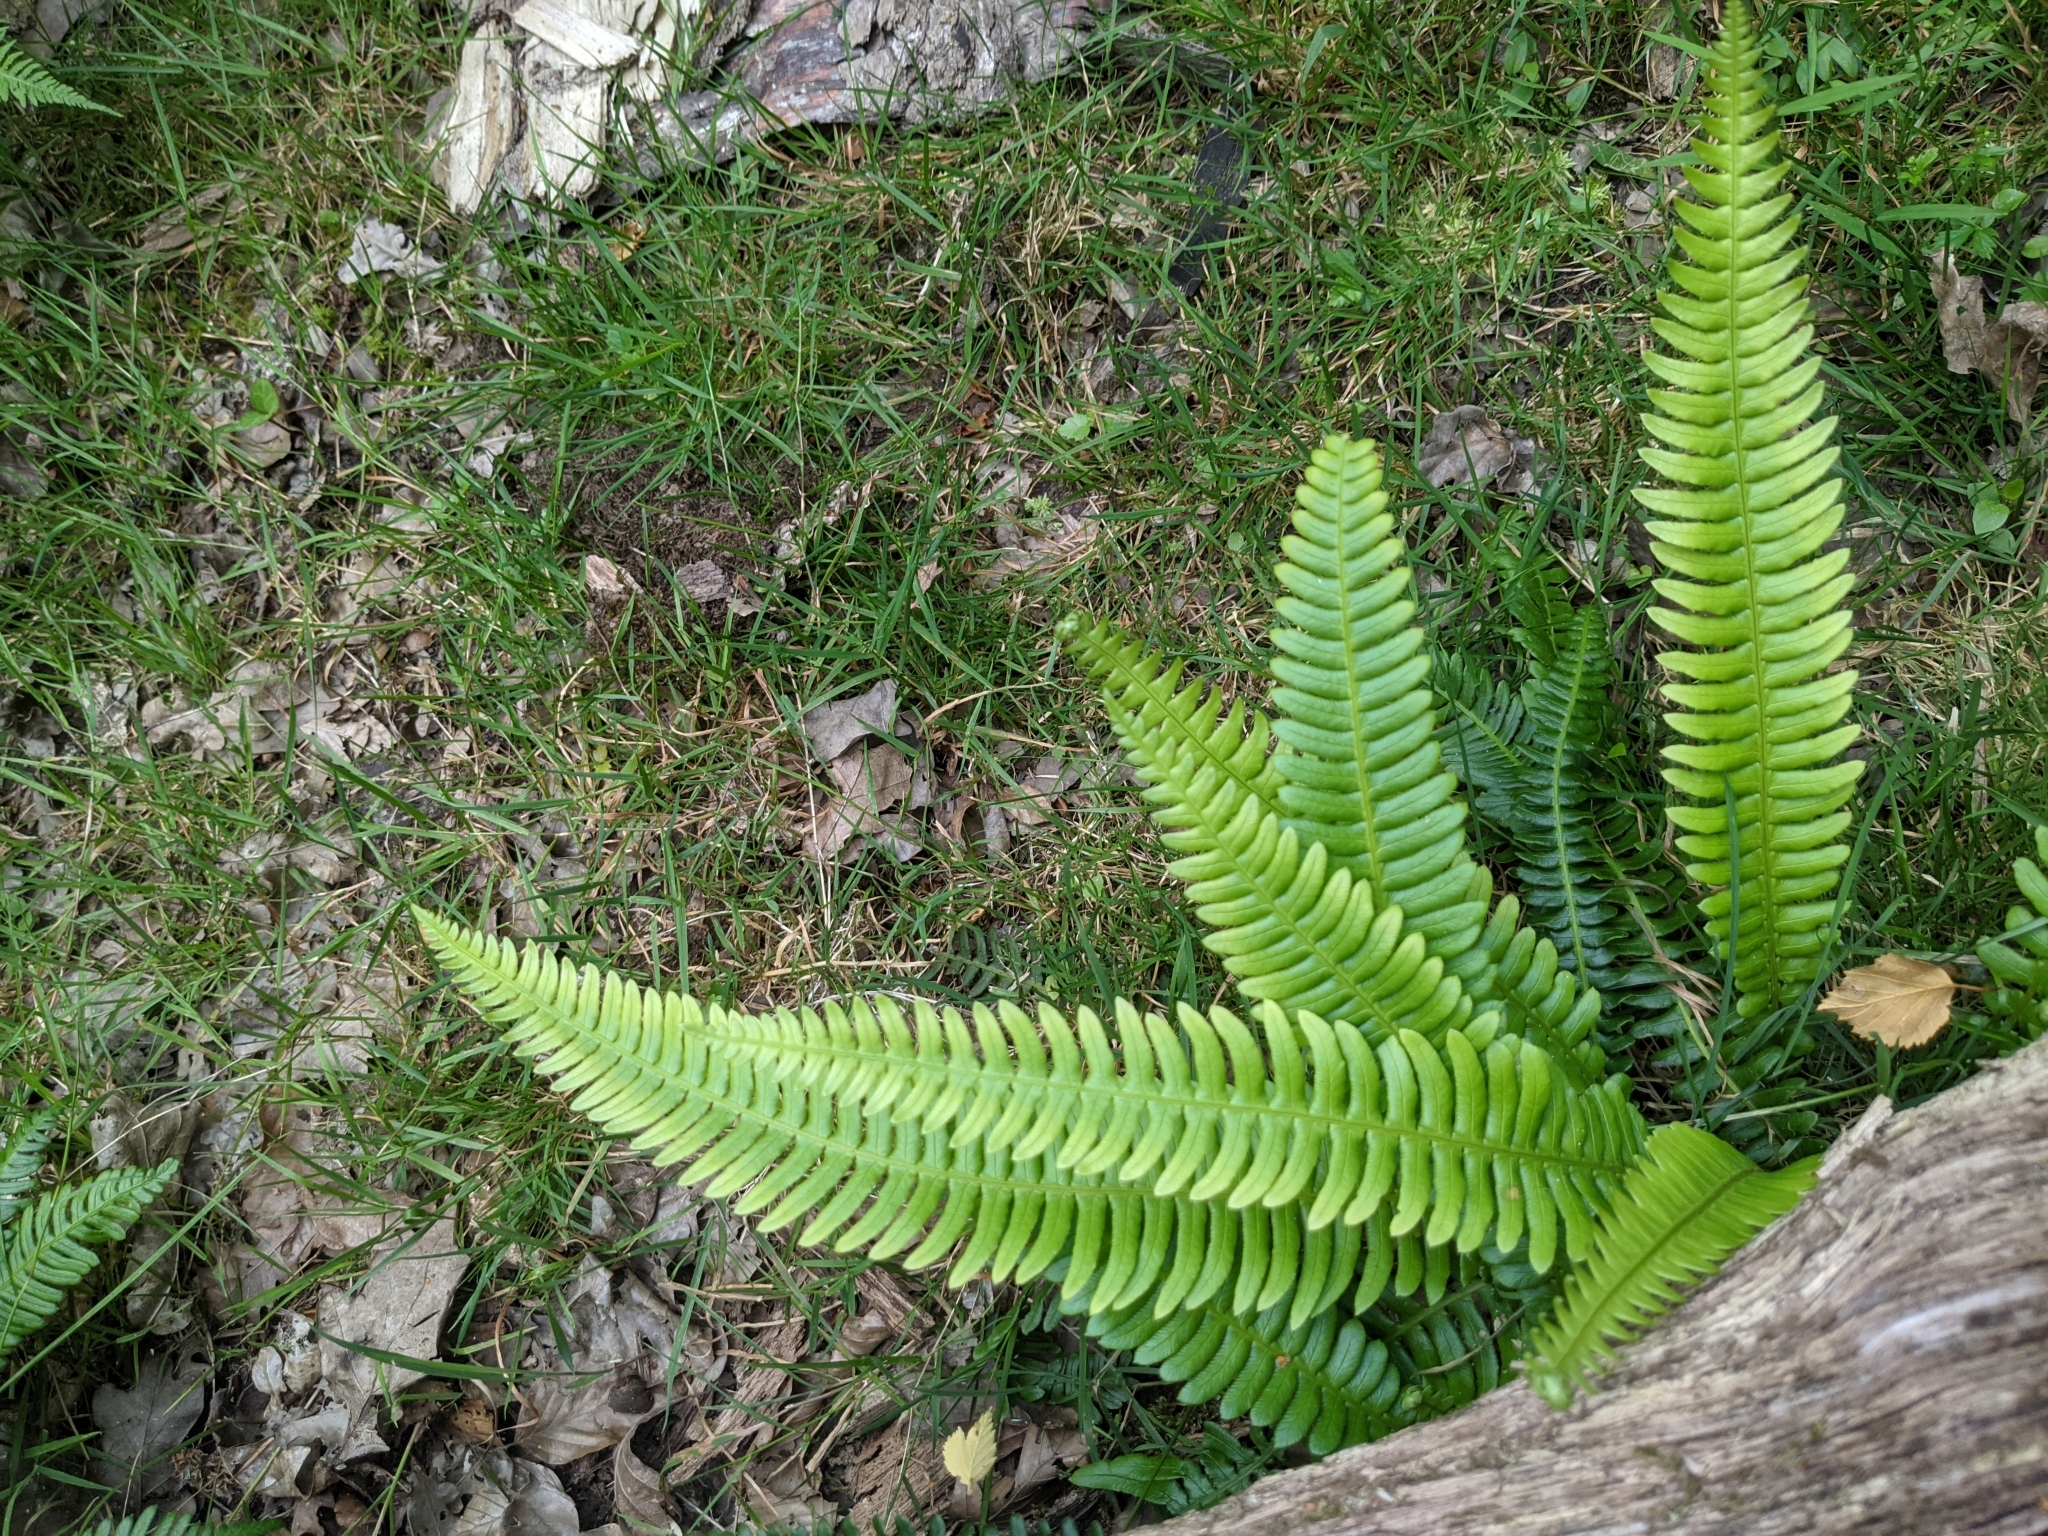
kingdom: Plantae
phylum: Tracheophyta
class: Polypodiopsida
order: Polypodiales
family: Blechnaceae
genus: Struthiopteris
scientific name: Struthiopteris spicant
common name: Deer fern
